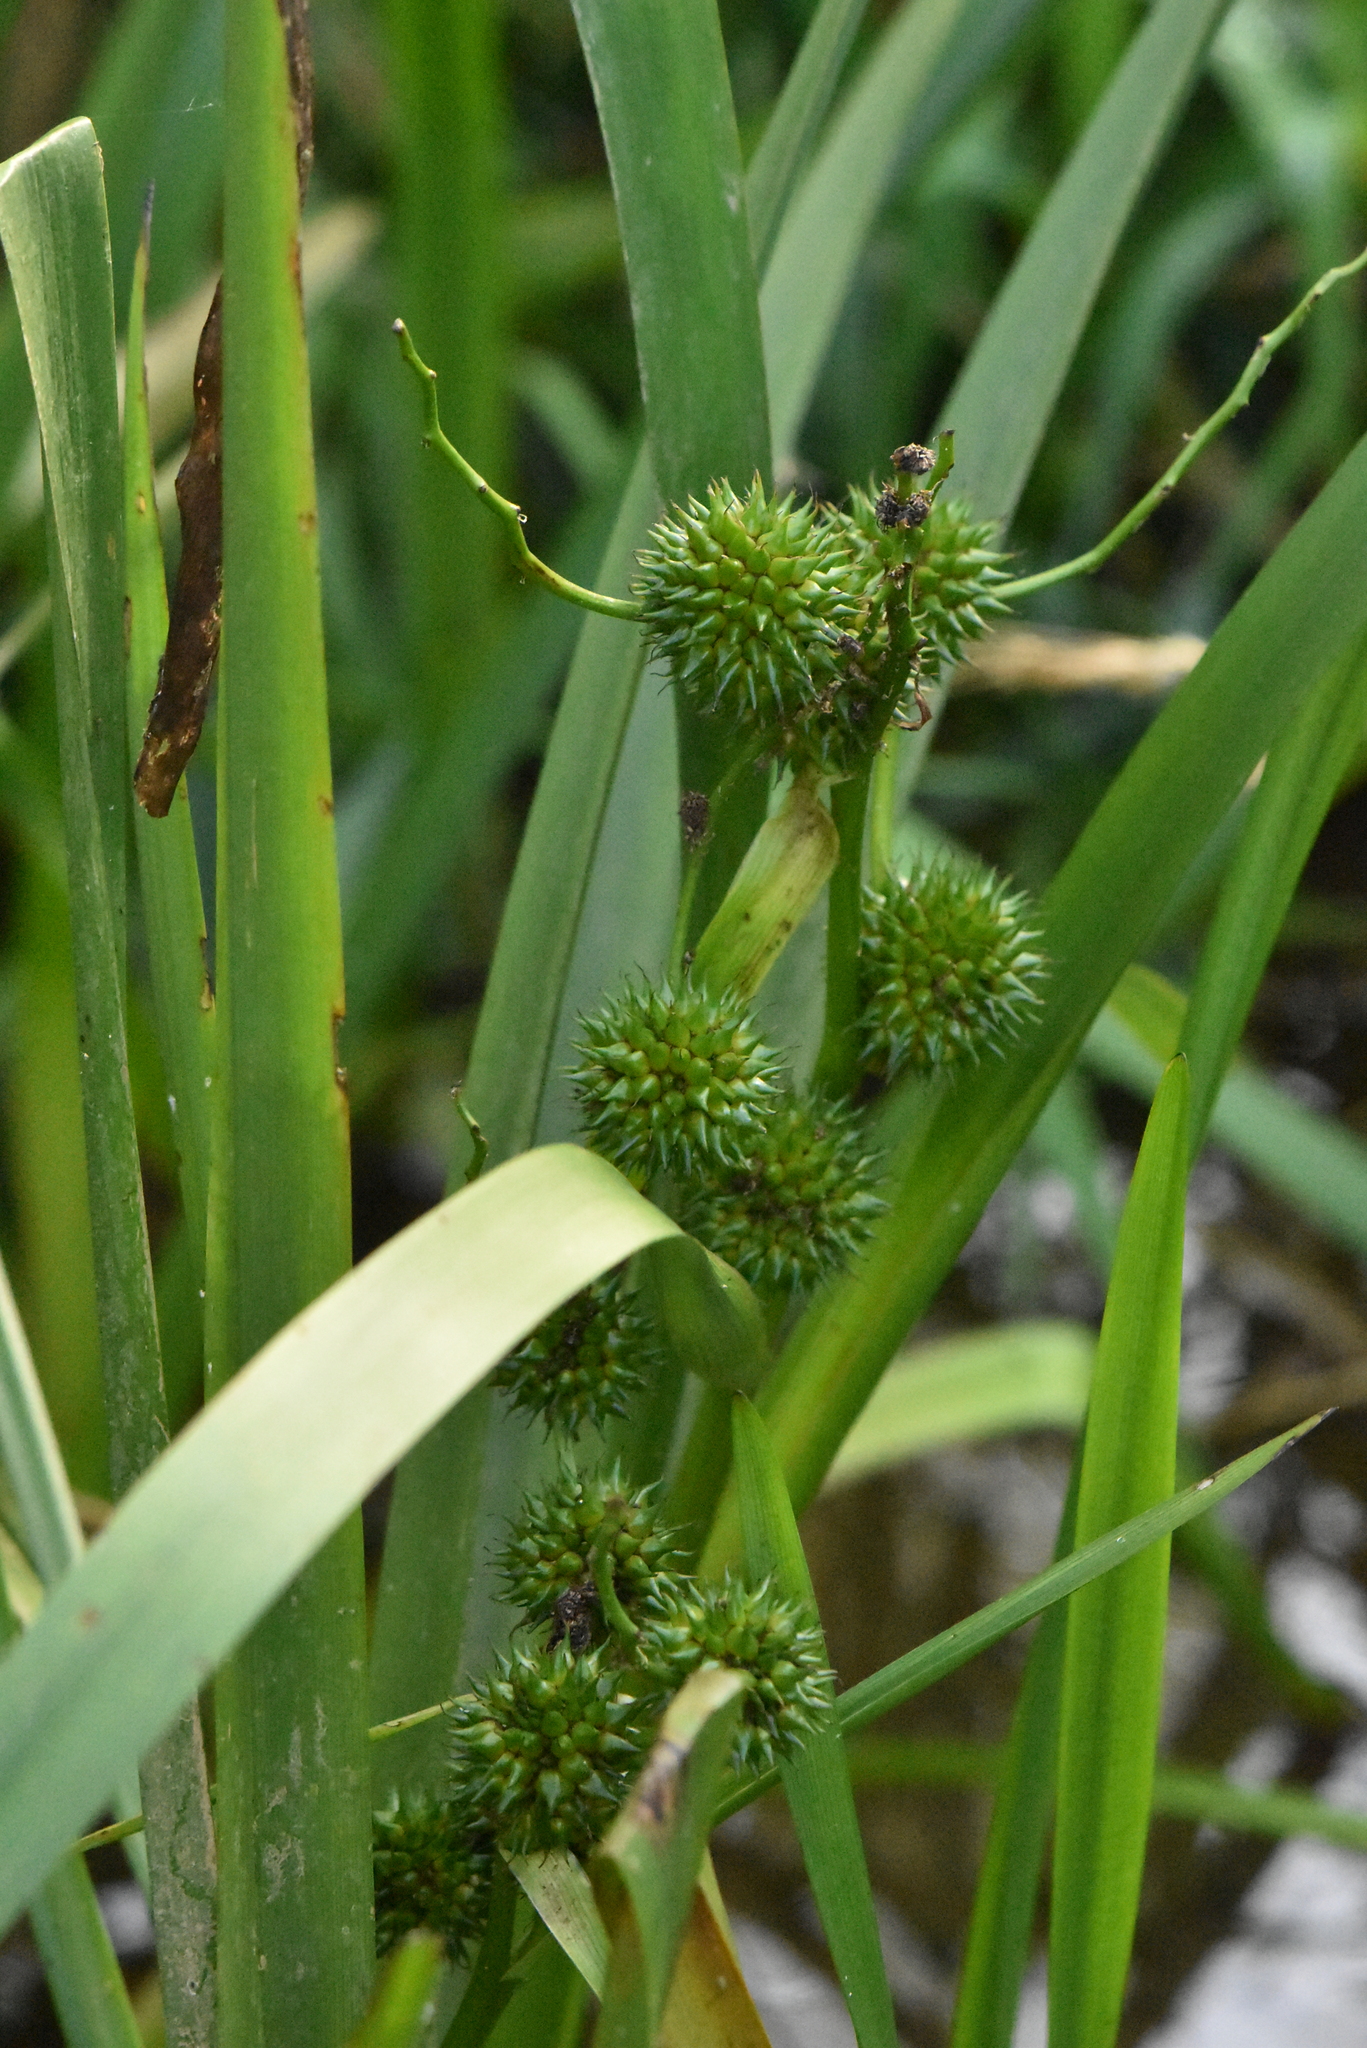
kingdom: Plantae
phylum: Tracheophyta
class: Liliopsida
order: Poales
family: Typhaceae
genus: Sparganium
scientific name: Sparganium erectum
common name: Branched bur-reed
